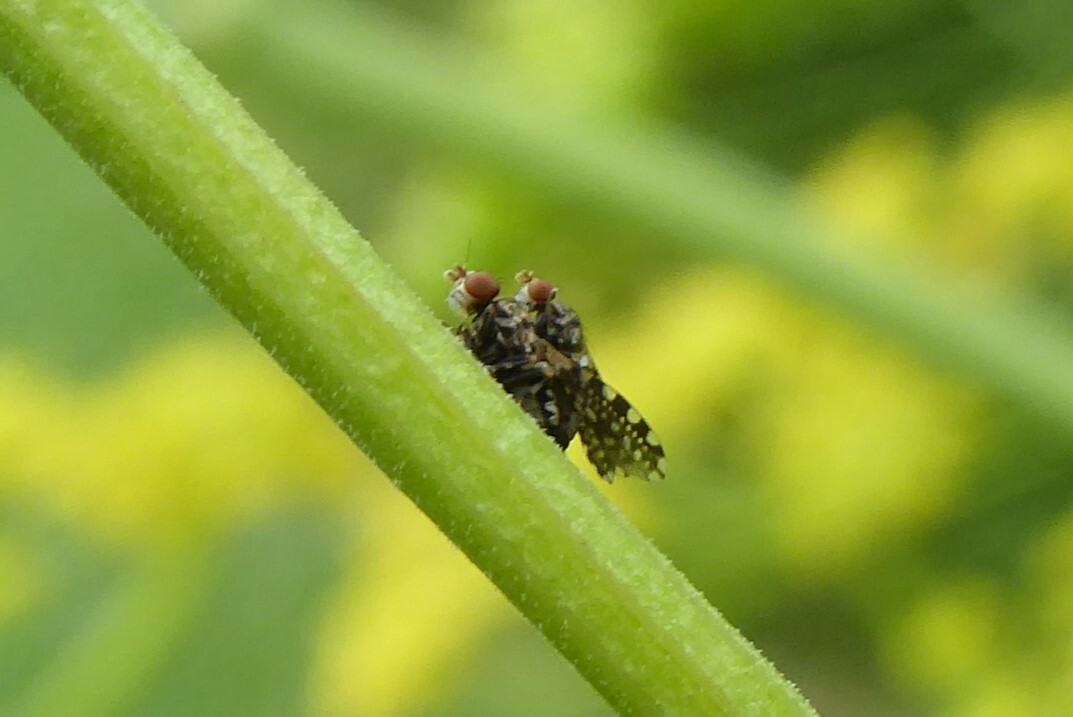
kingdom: Animalia
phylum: Arthropoda
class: Insecta
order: Diptera
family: Heleomyzidae
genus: Xeneura
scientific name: Xeneura picata
